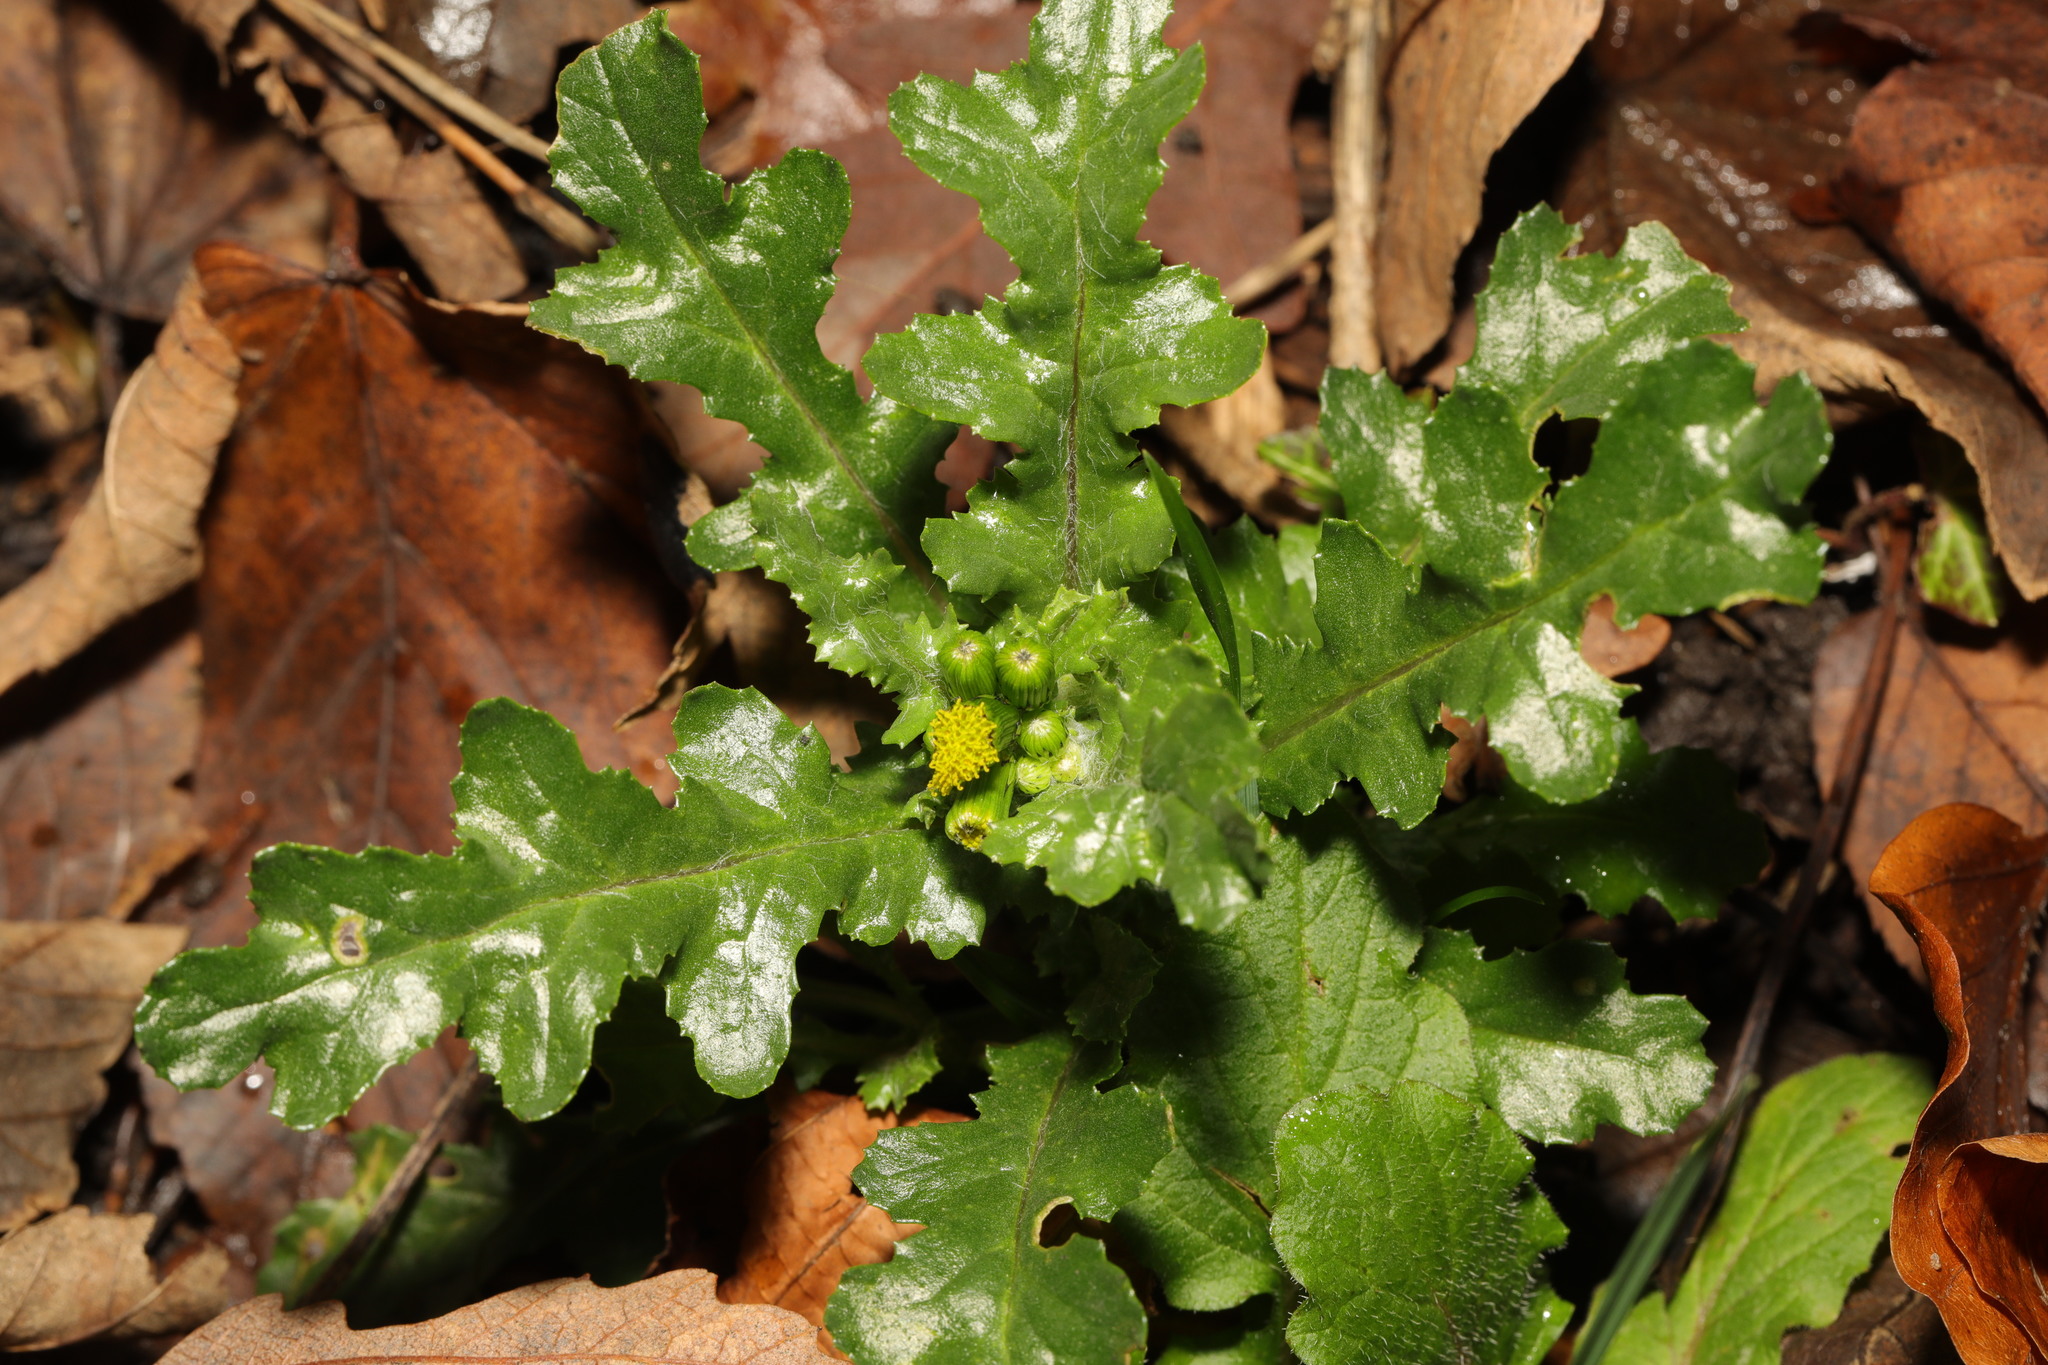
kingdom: Plantae
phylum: Tracheophyta
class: Magnoliopsida
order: Asterales
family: Asteraceae
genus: Senecio
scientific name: Senecio vulgaris
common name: Old-man-in-the-spring
